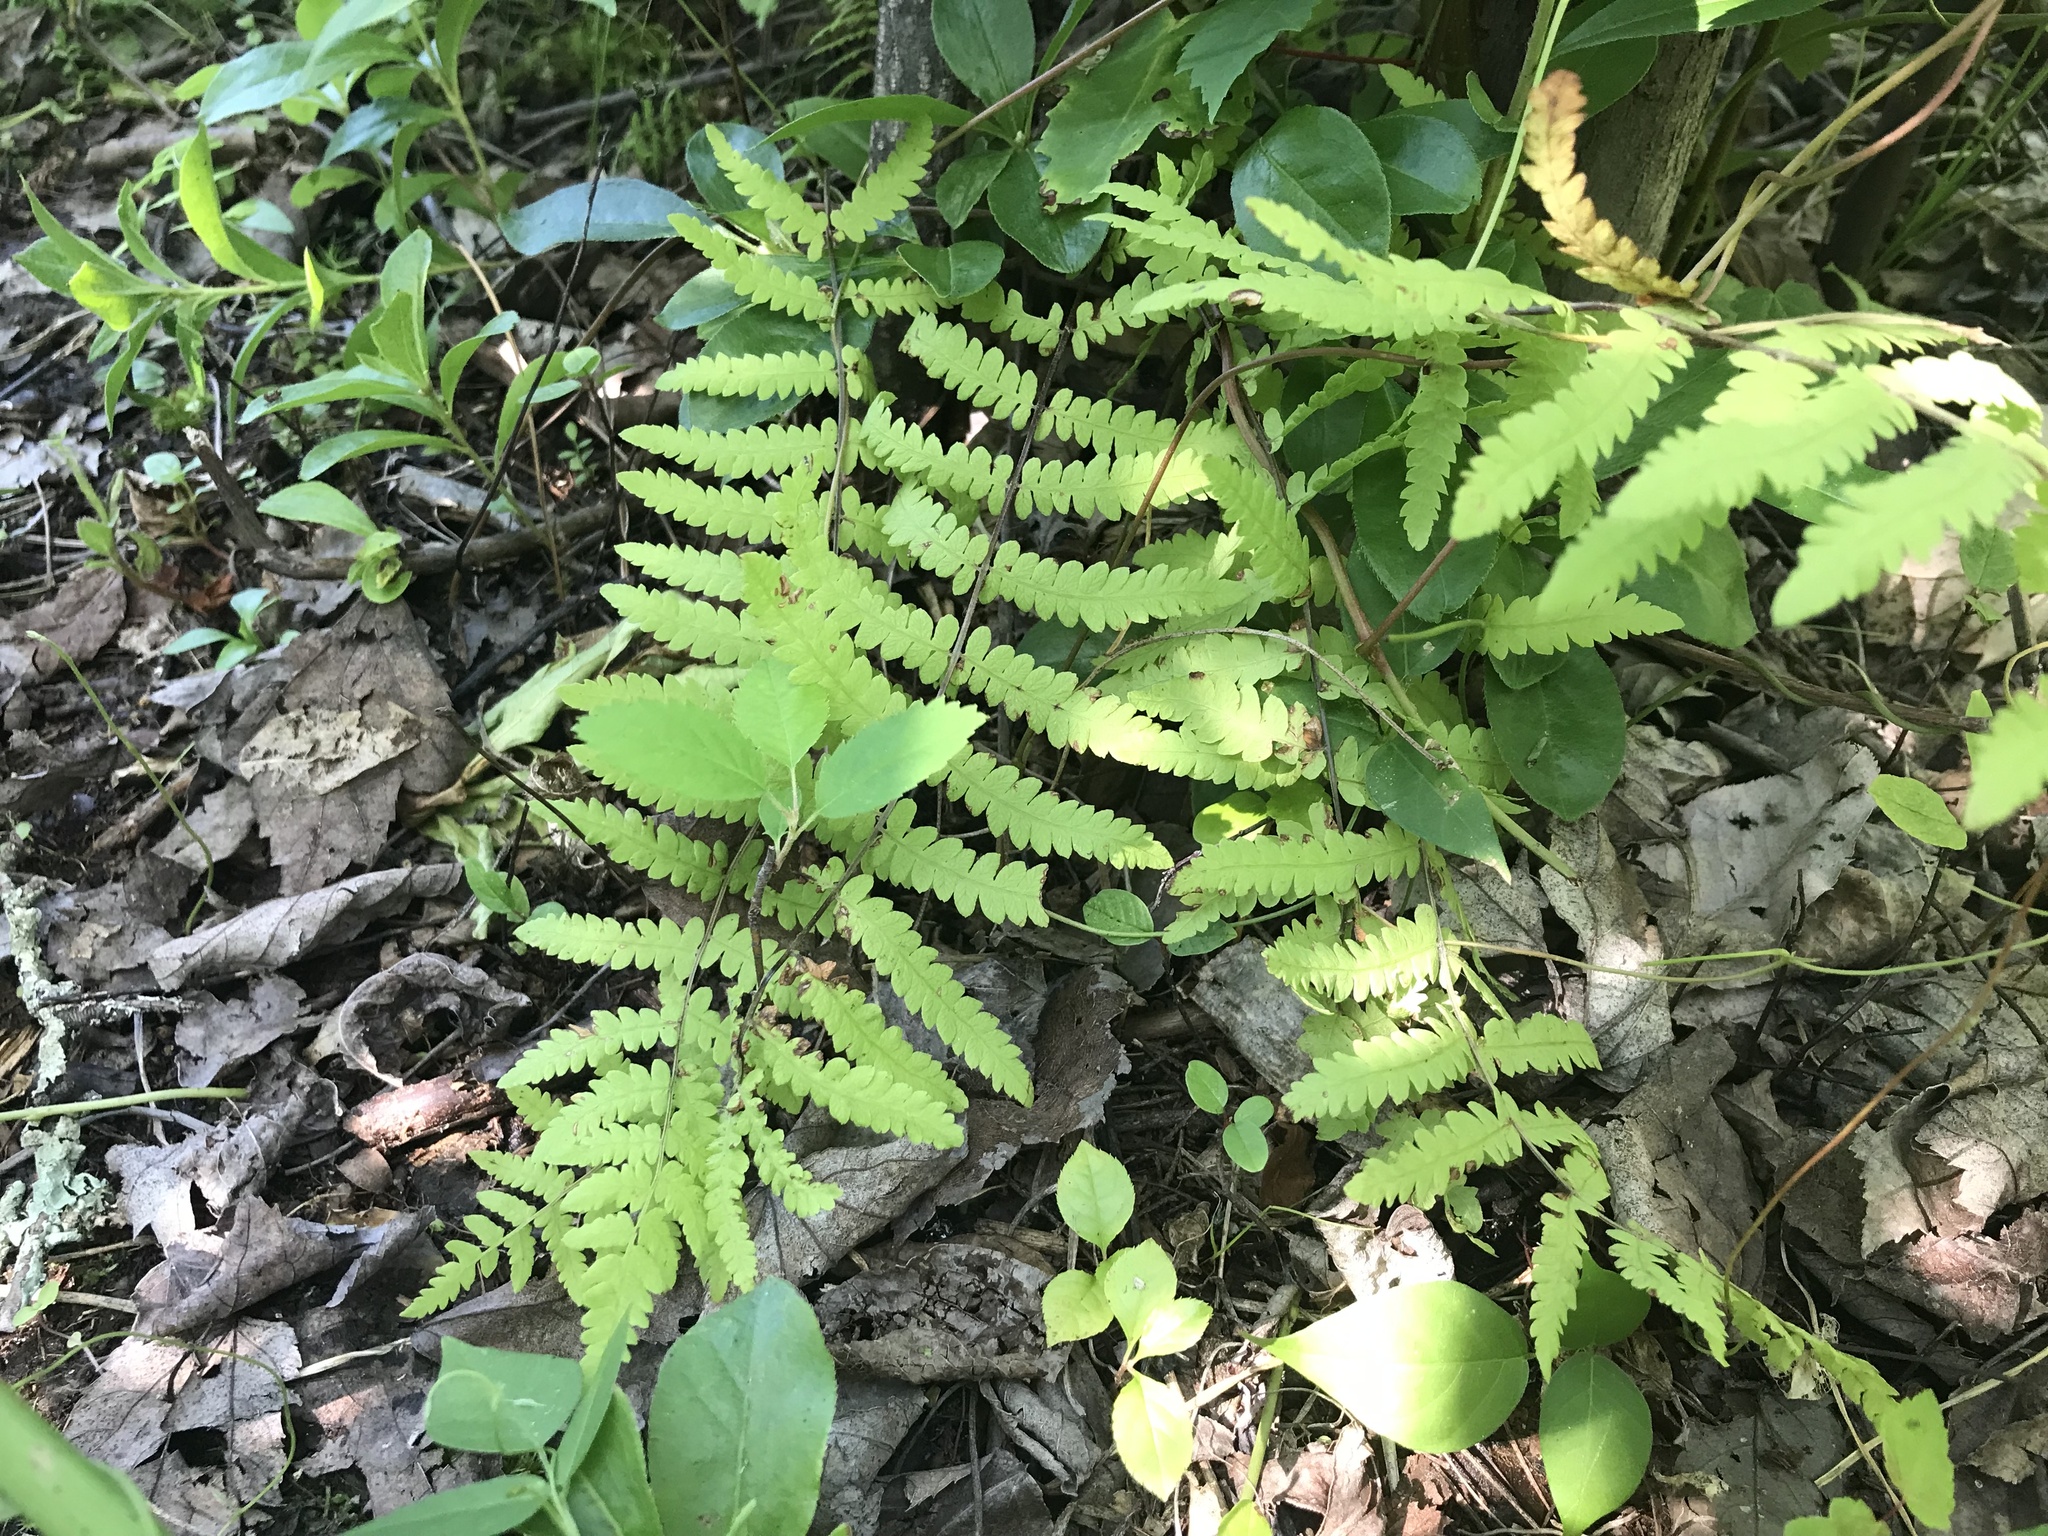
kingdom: Plantae
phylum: Tracheophyta
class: Polypodiopsida
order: Polypodiales
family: Thelypteridaceae
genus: Thelypteris
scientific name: Thelypteris palustris
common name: Marsh fern
